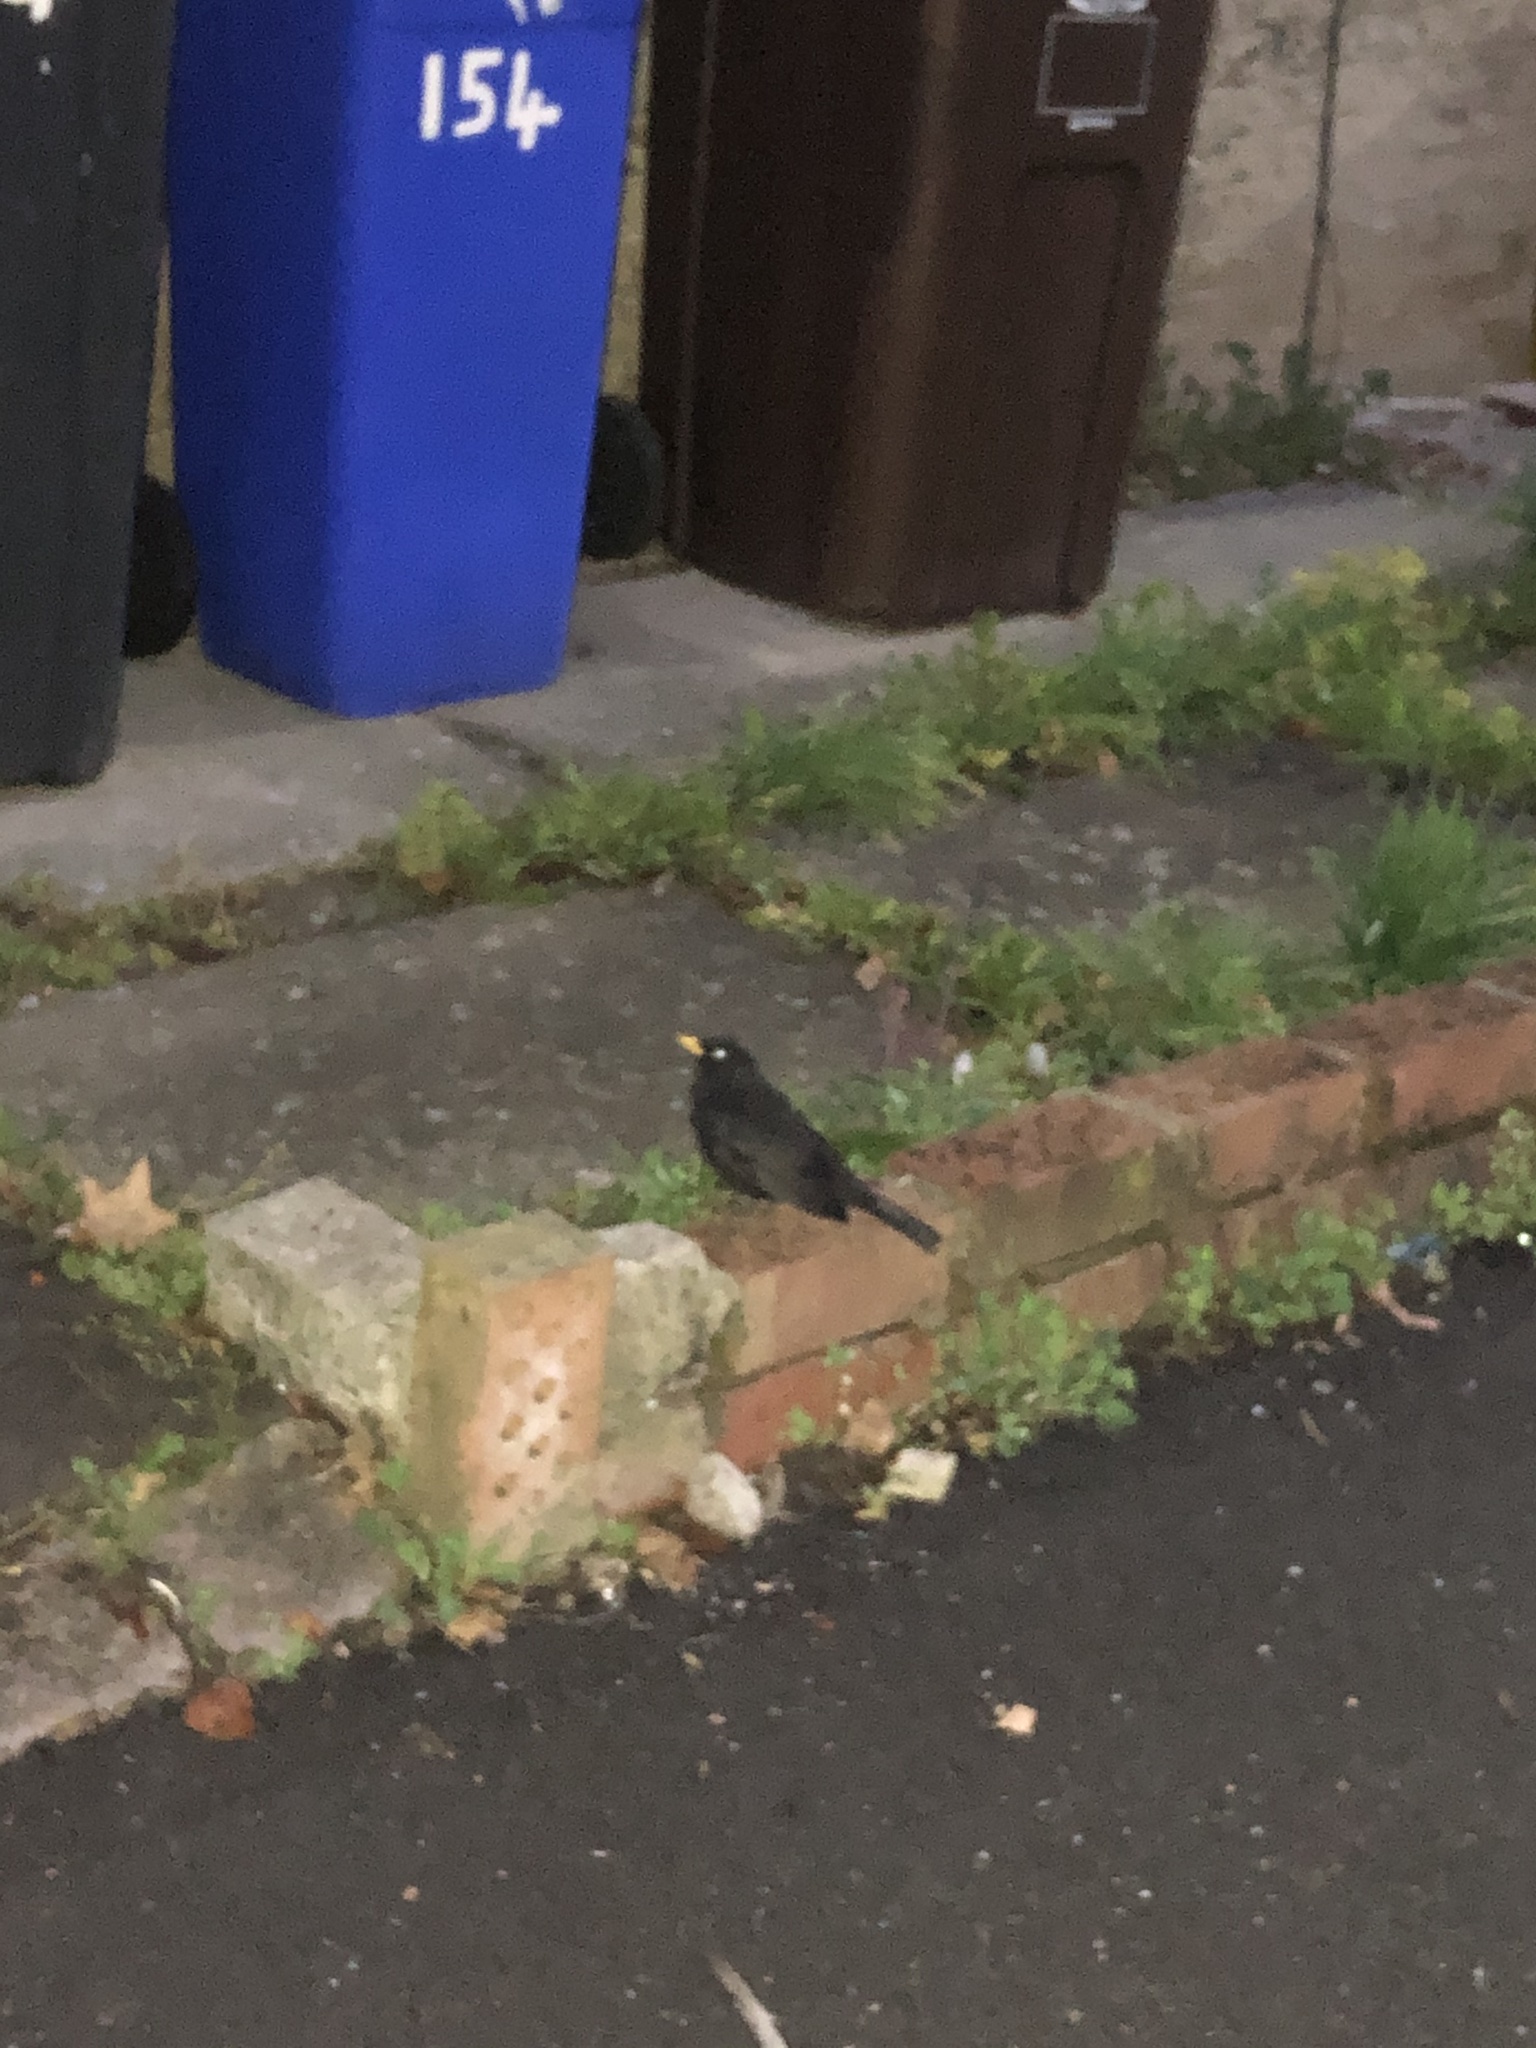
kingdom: Animalia
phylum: Chordata
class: Aves
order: Passeriformes
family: Turdidae
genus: Turdus
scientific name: Turdus merula
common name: Common blackbird
